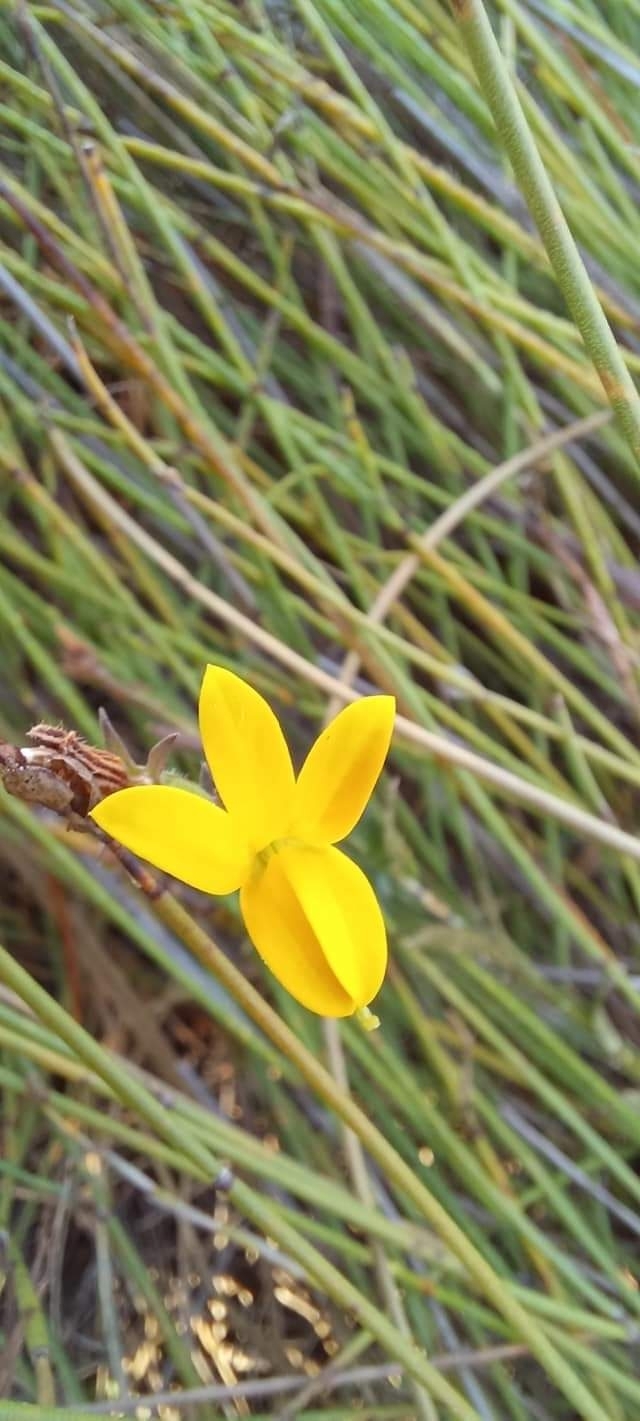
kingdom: Plantae
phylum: Tracheophyta
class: Magnoliopsida
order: Asterales
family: Campanulaceae
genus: Monopsis
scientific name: Monopsis lutea
